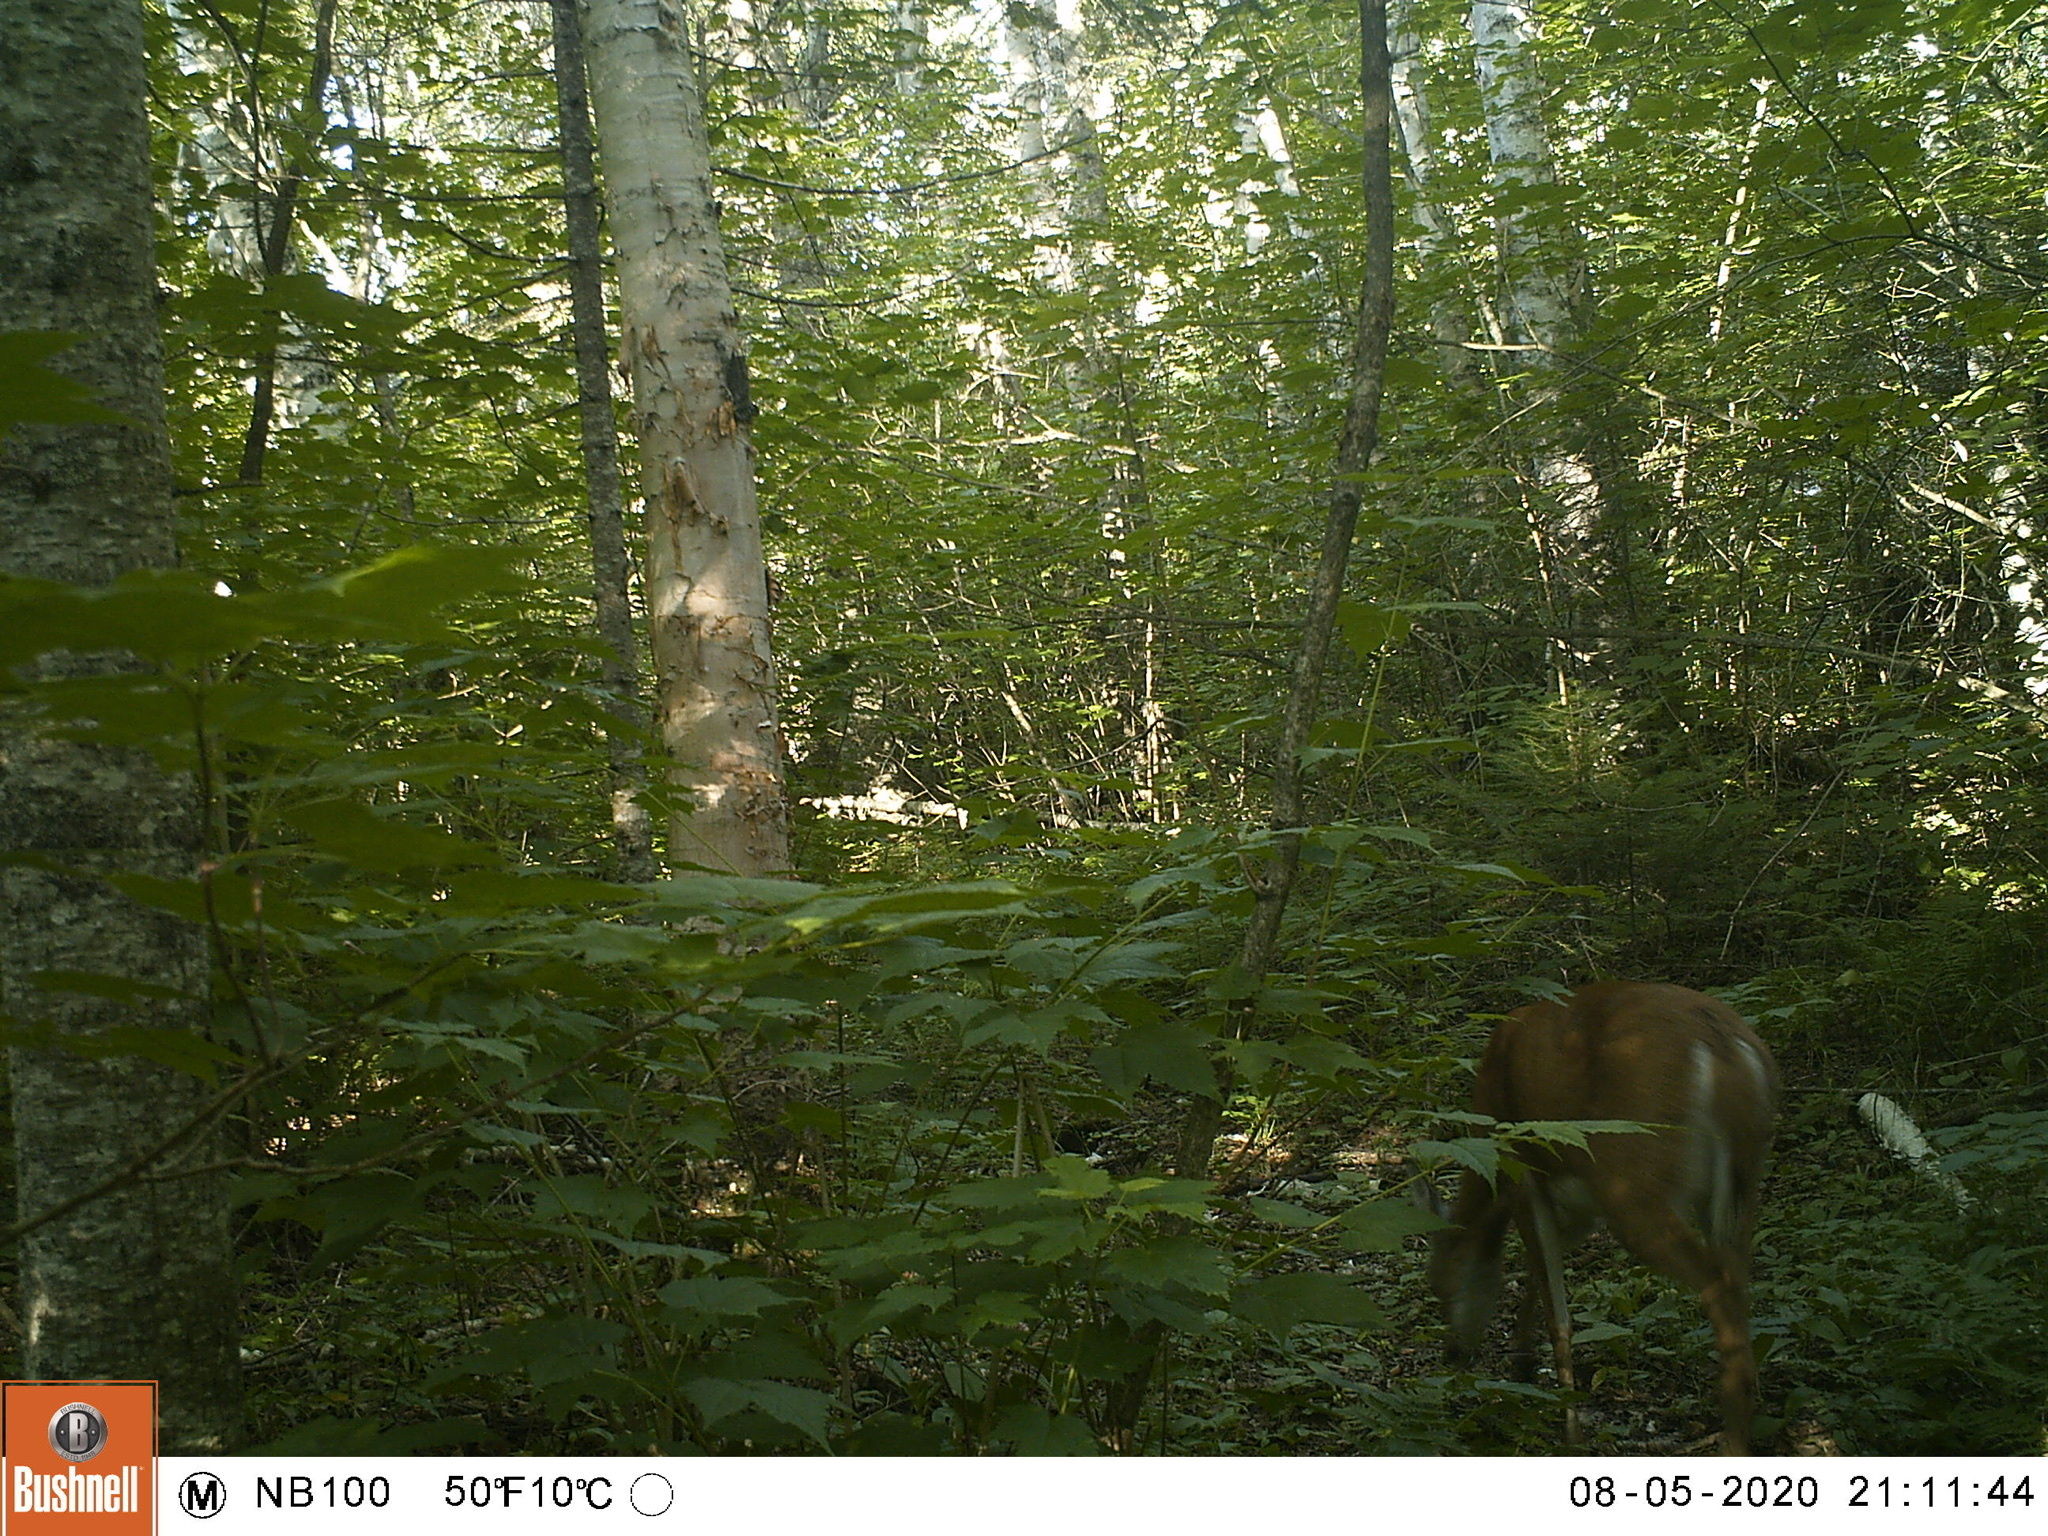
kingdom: Animalia
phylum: Chordata
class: Mammalia
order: Artiodactyla
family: Cervidae
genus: Odocoileus
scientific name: Odocoileus virginianus
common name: White-tailed deer
